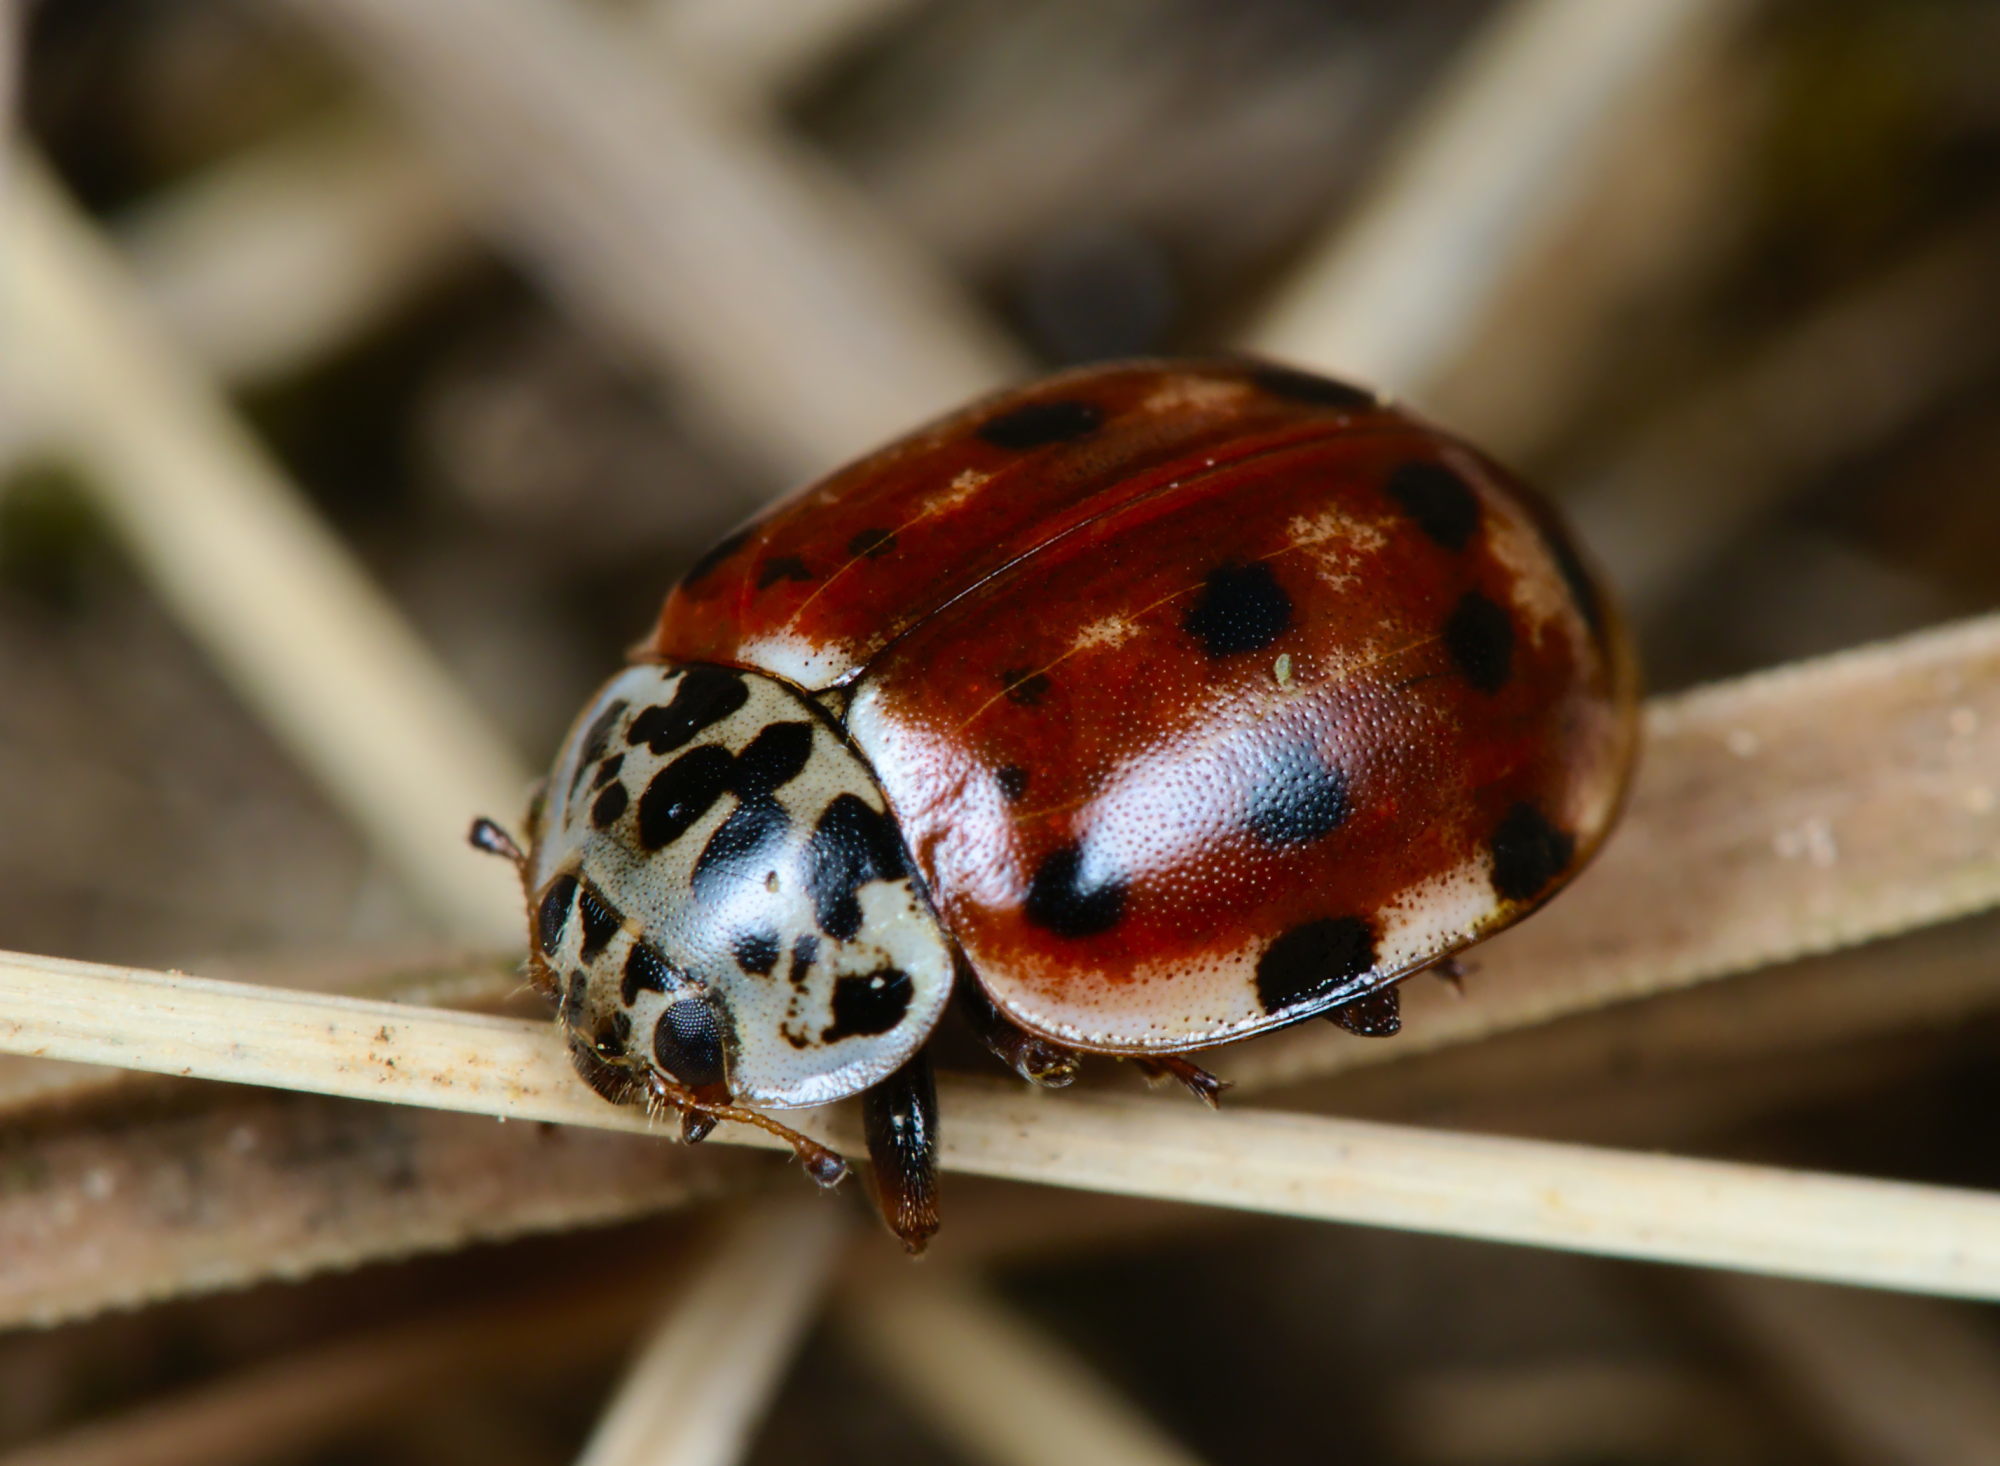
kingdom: Animalia
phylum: Arthropoda
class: Insecta
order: Coleoptera
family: Coccinellidae
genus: Harmonia
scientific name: Harmonia quadripunctata
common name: Cream-streaked ladybird
